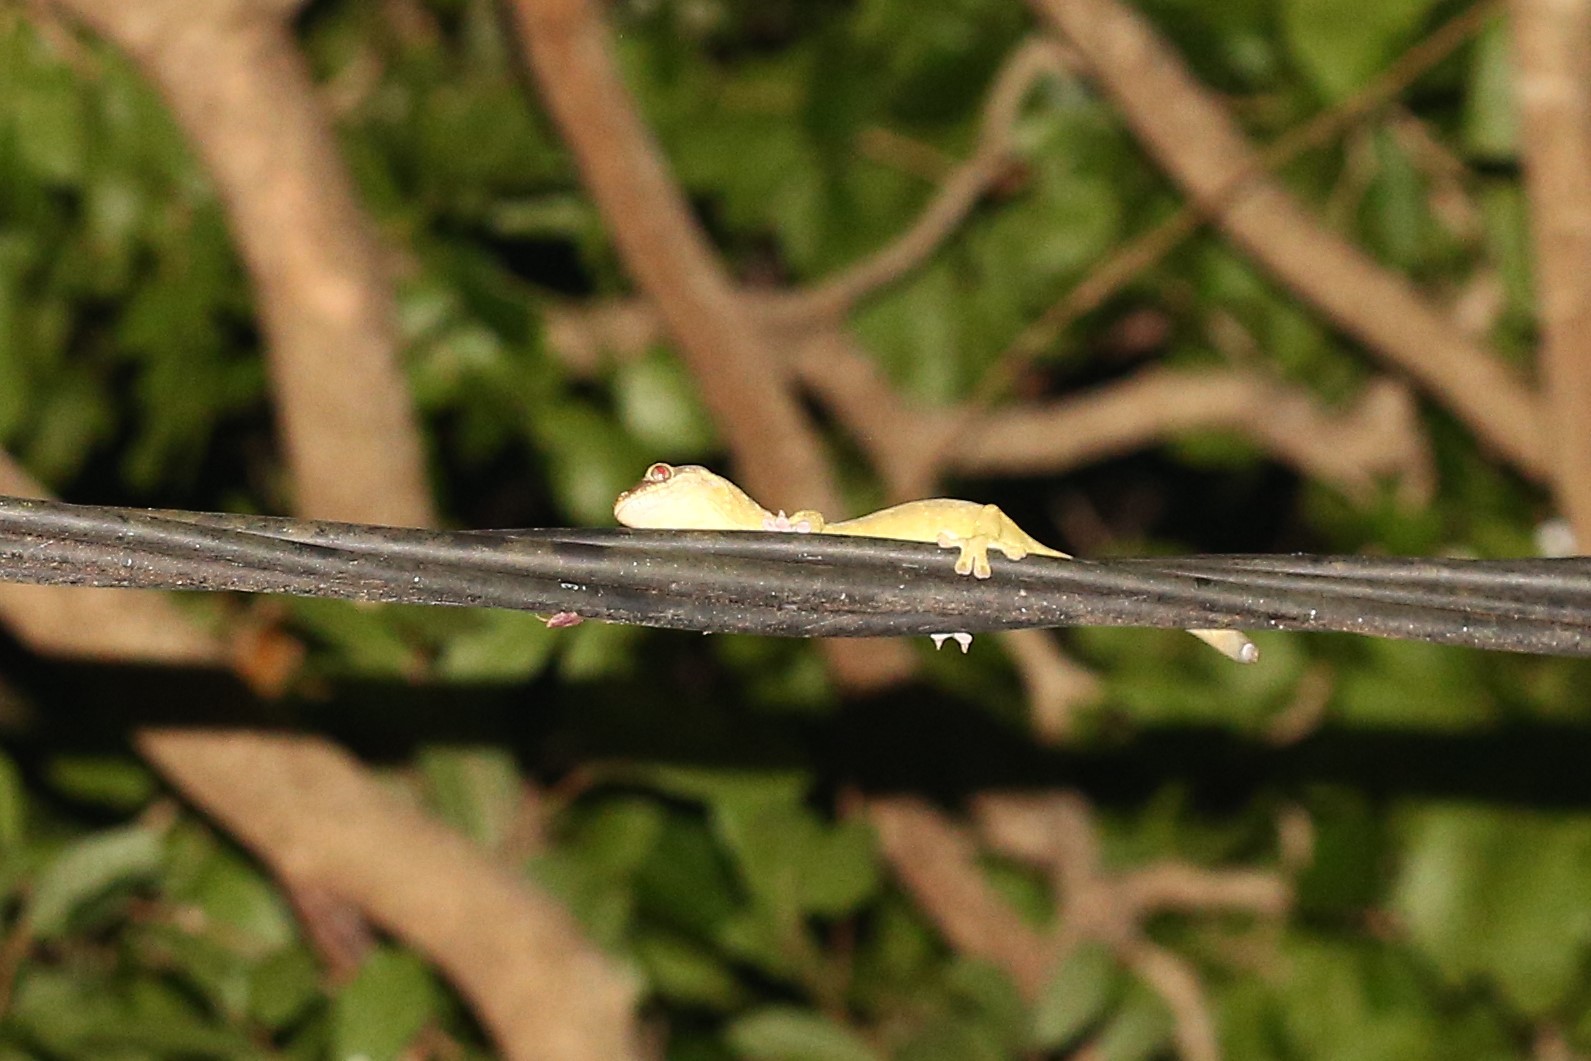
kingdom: Animalia
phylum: Chordata
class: Squamata
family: Diplodactylidae
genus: Rhacodactylus
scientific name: Rhacodactylus trachycephalus
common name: Tough-snouted giant gecko
